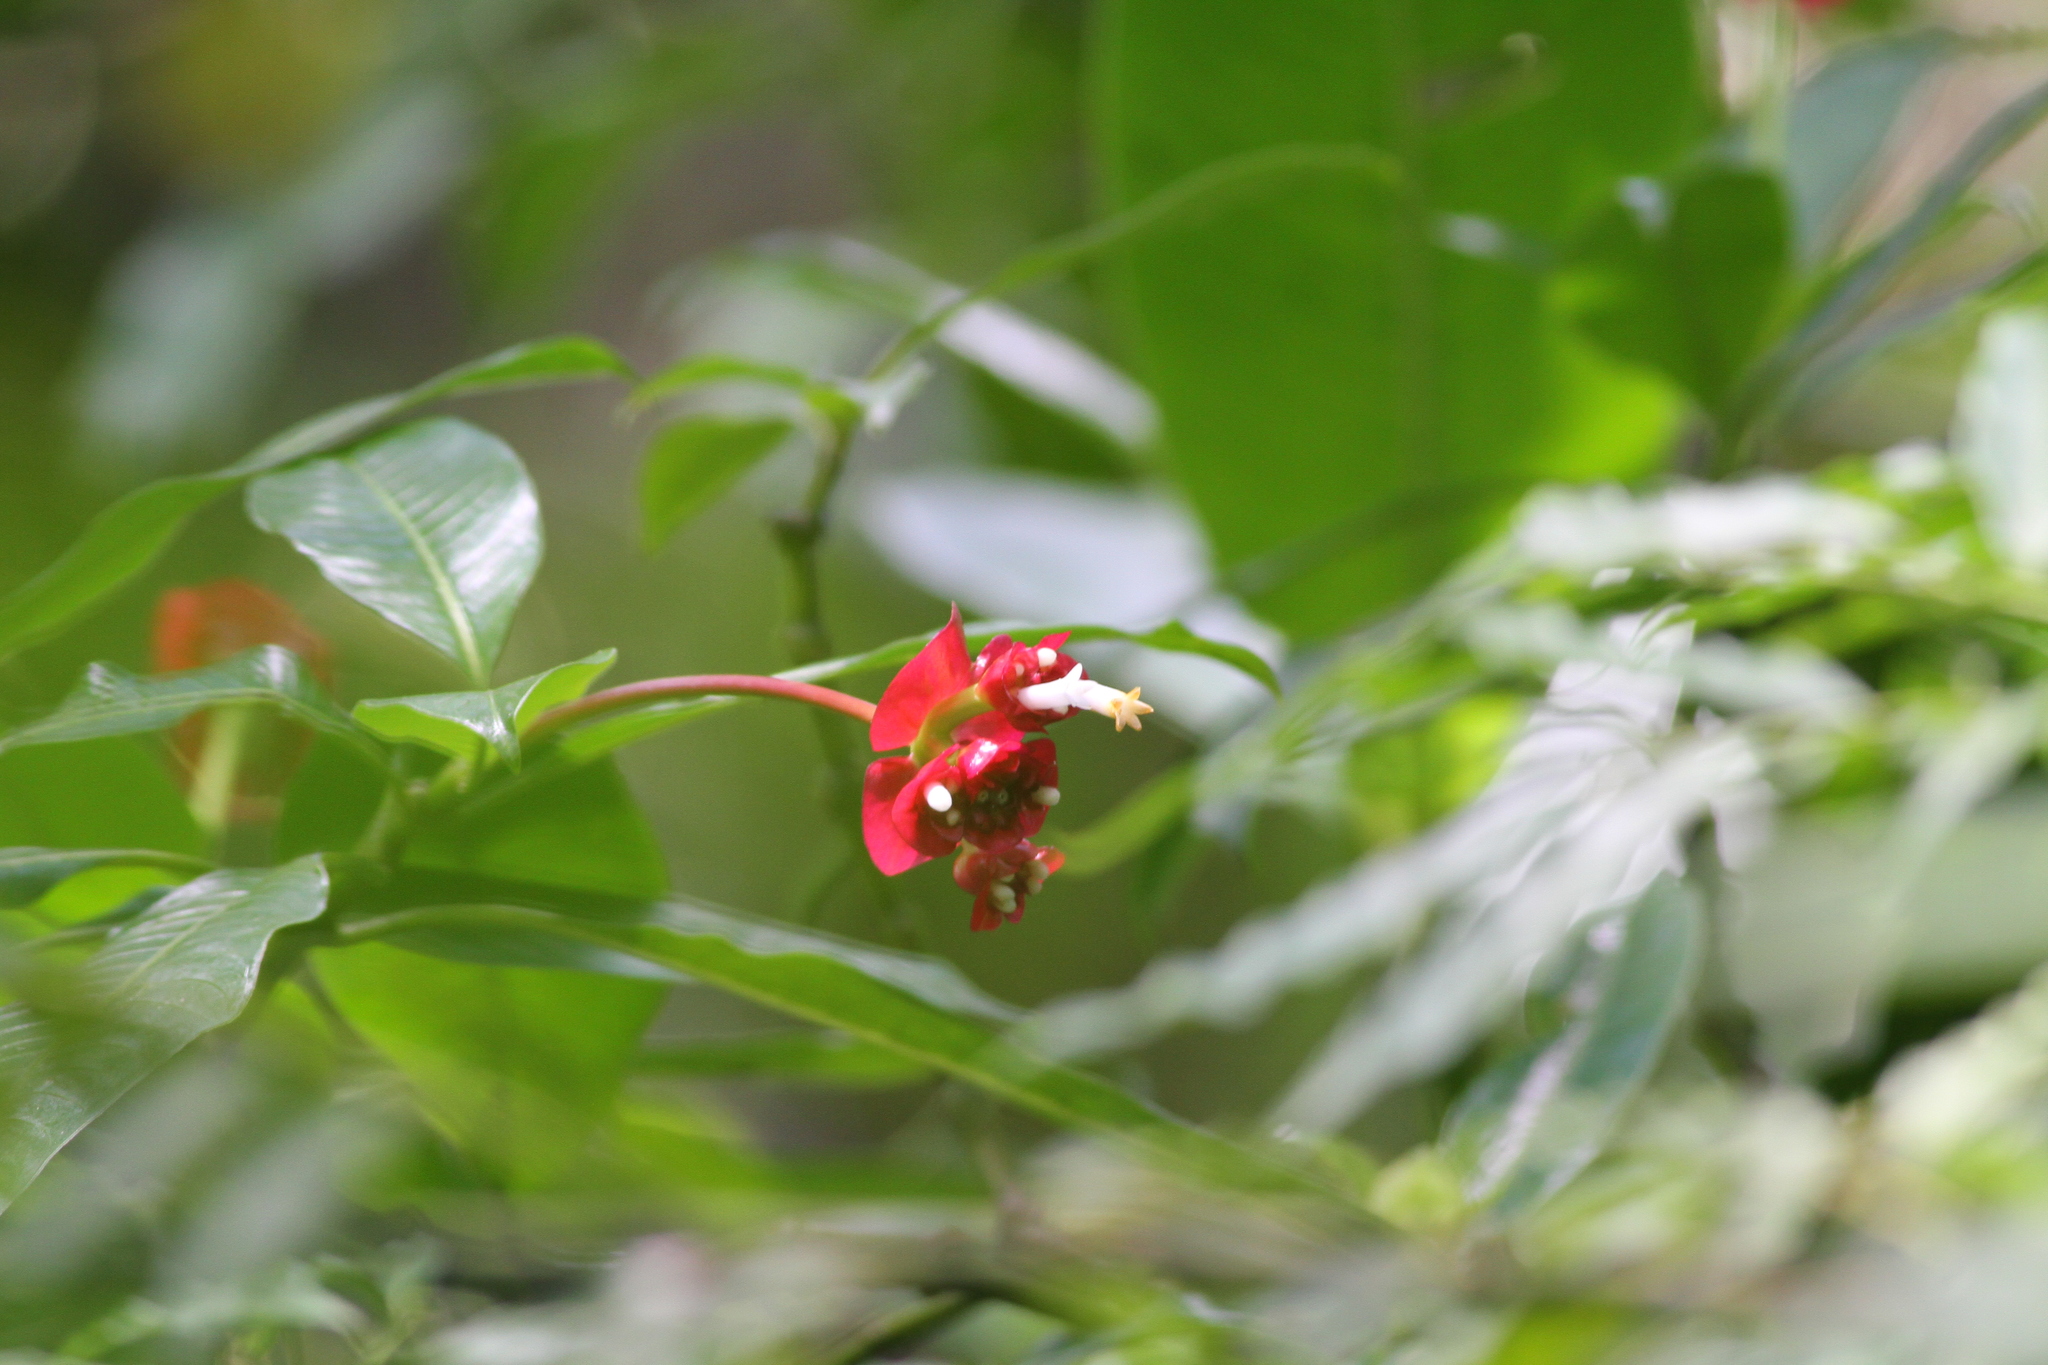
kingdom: Plantae
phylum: Tracheophyta
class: Magnoliopsida
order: Gentianales
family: Rubiaceae
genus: Palicourea
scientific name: Palicourea elata
